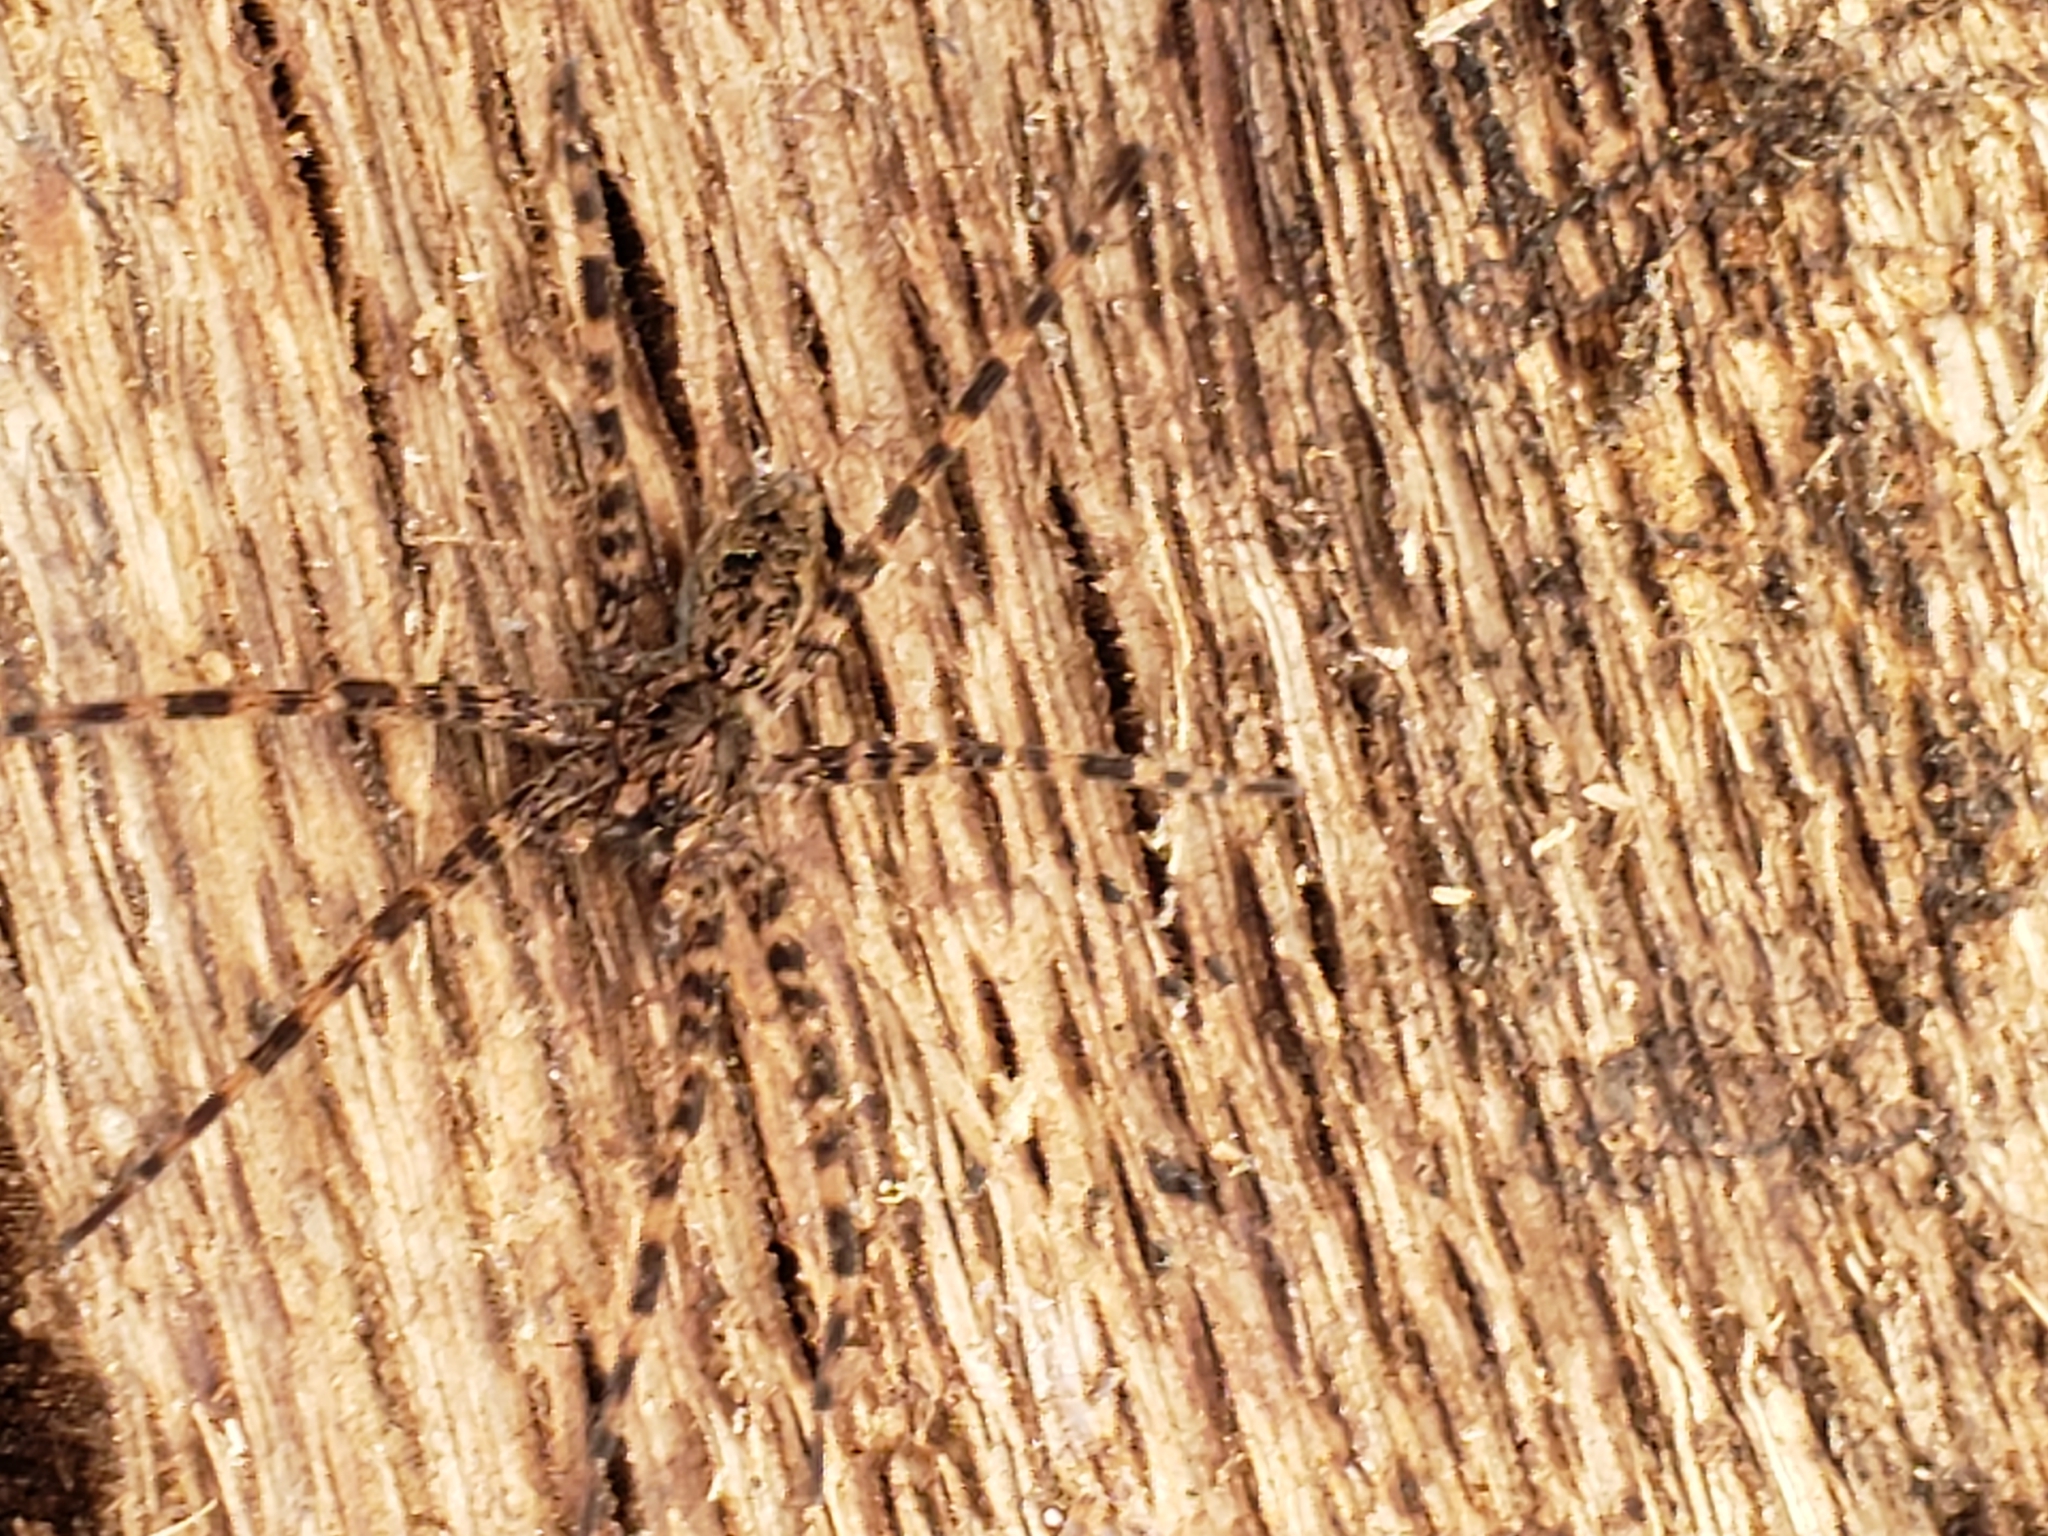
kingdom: Animalia
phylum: Arthropoda
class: Arachnida
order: Araneae
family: Pisauridae
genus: Dolomedes
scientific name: Dolomedes tenebrosus
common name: Dark fishing spider
